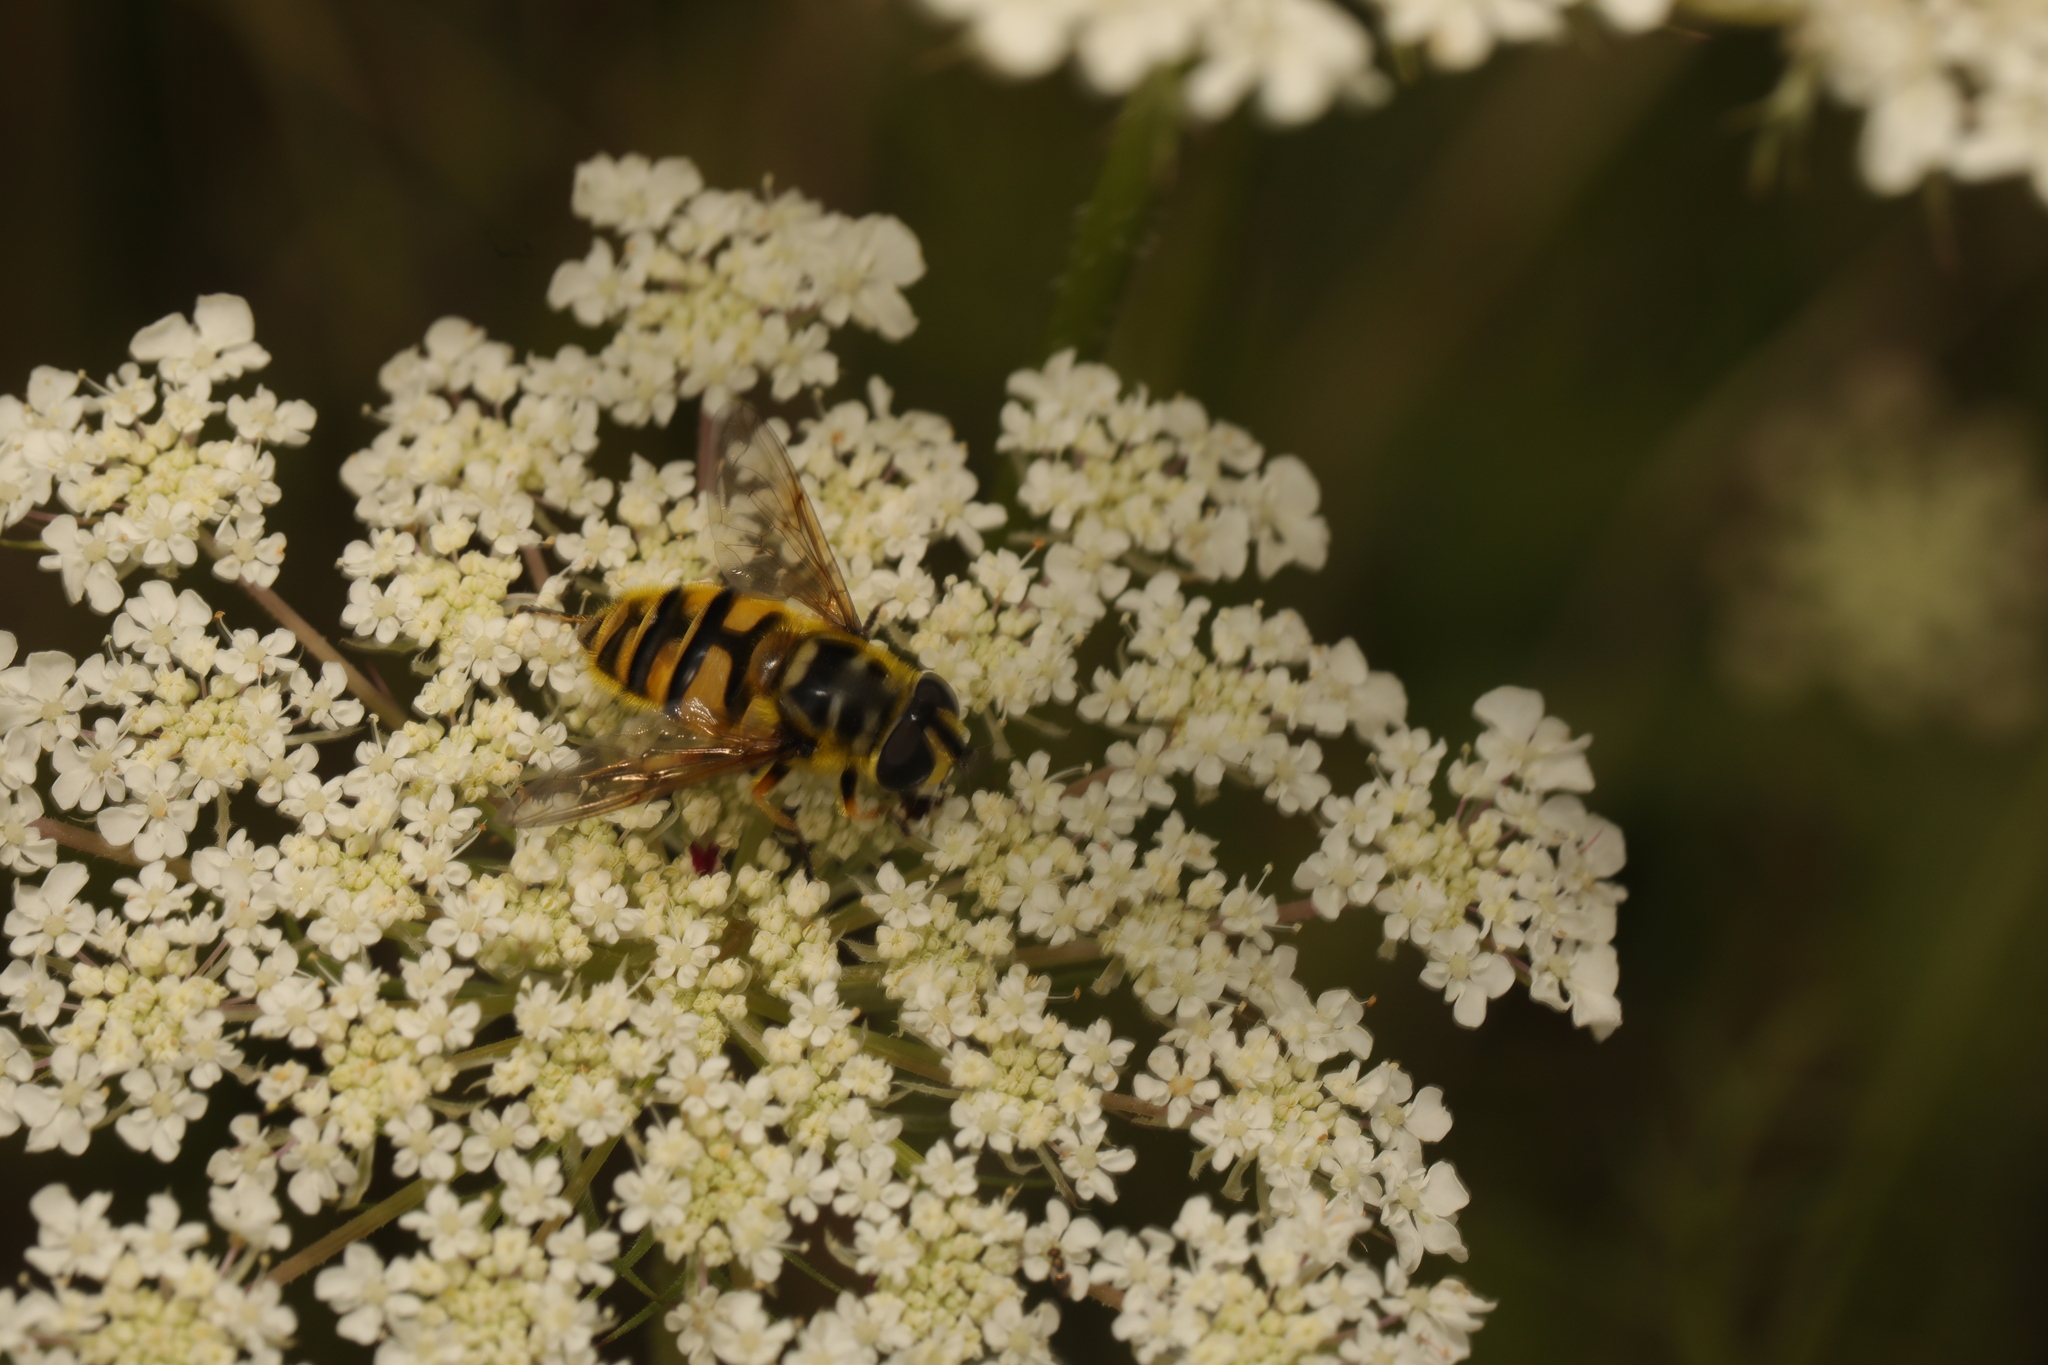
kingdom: Animalia
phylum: Arthropoda
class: Insecta
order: Diptera
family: Syrphidae
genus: Myathropa
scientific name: Myathropa florea
